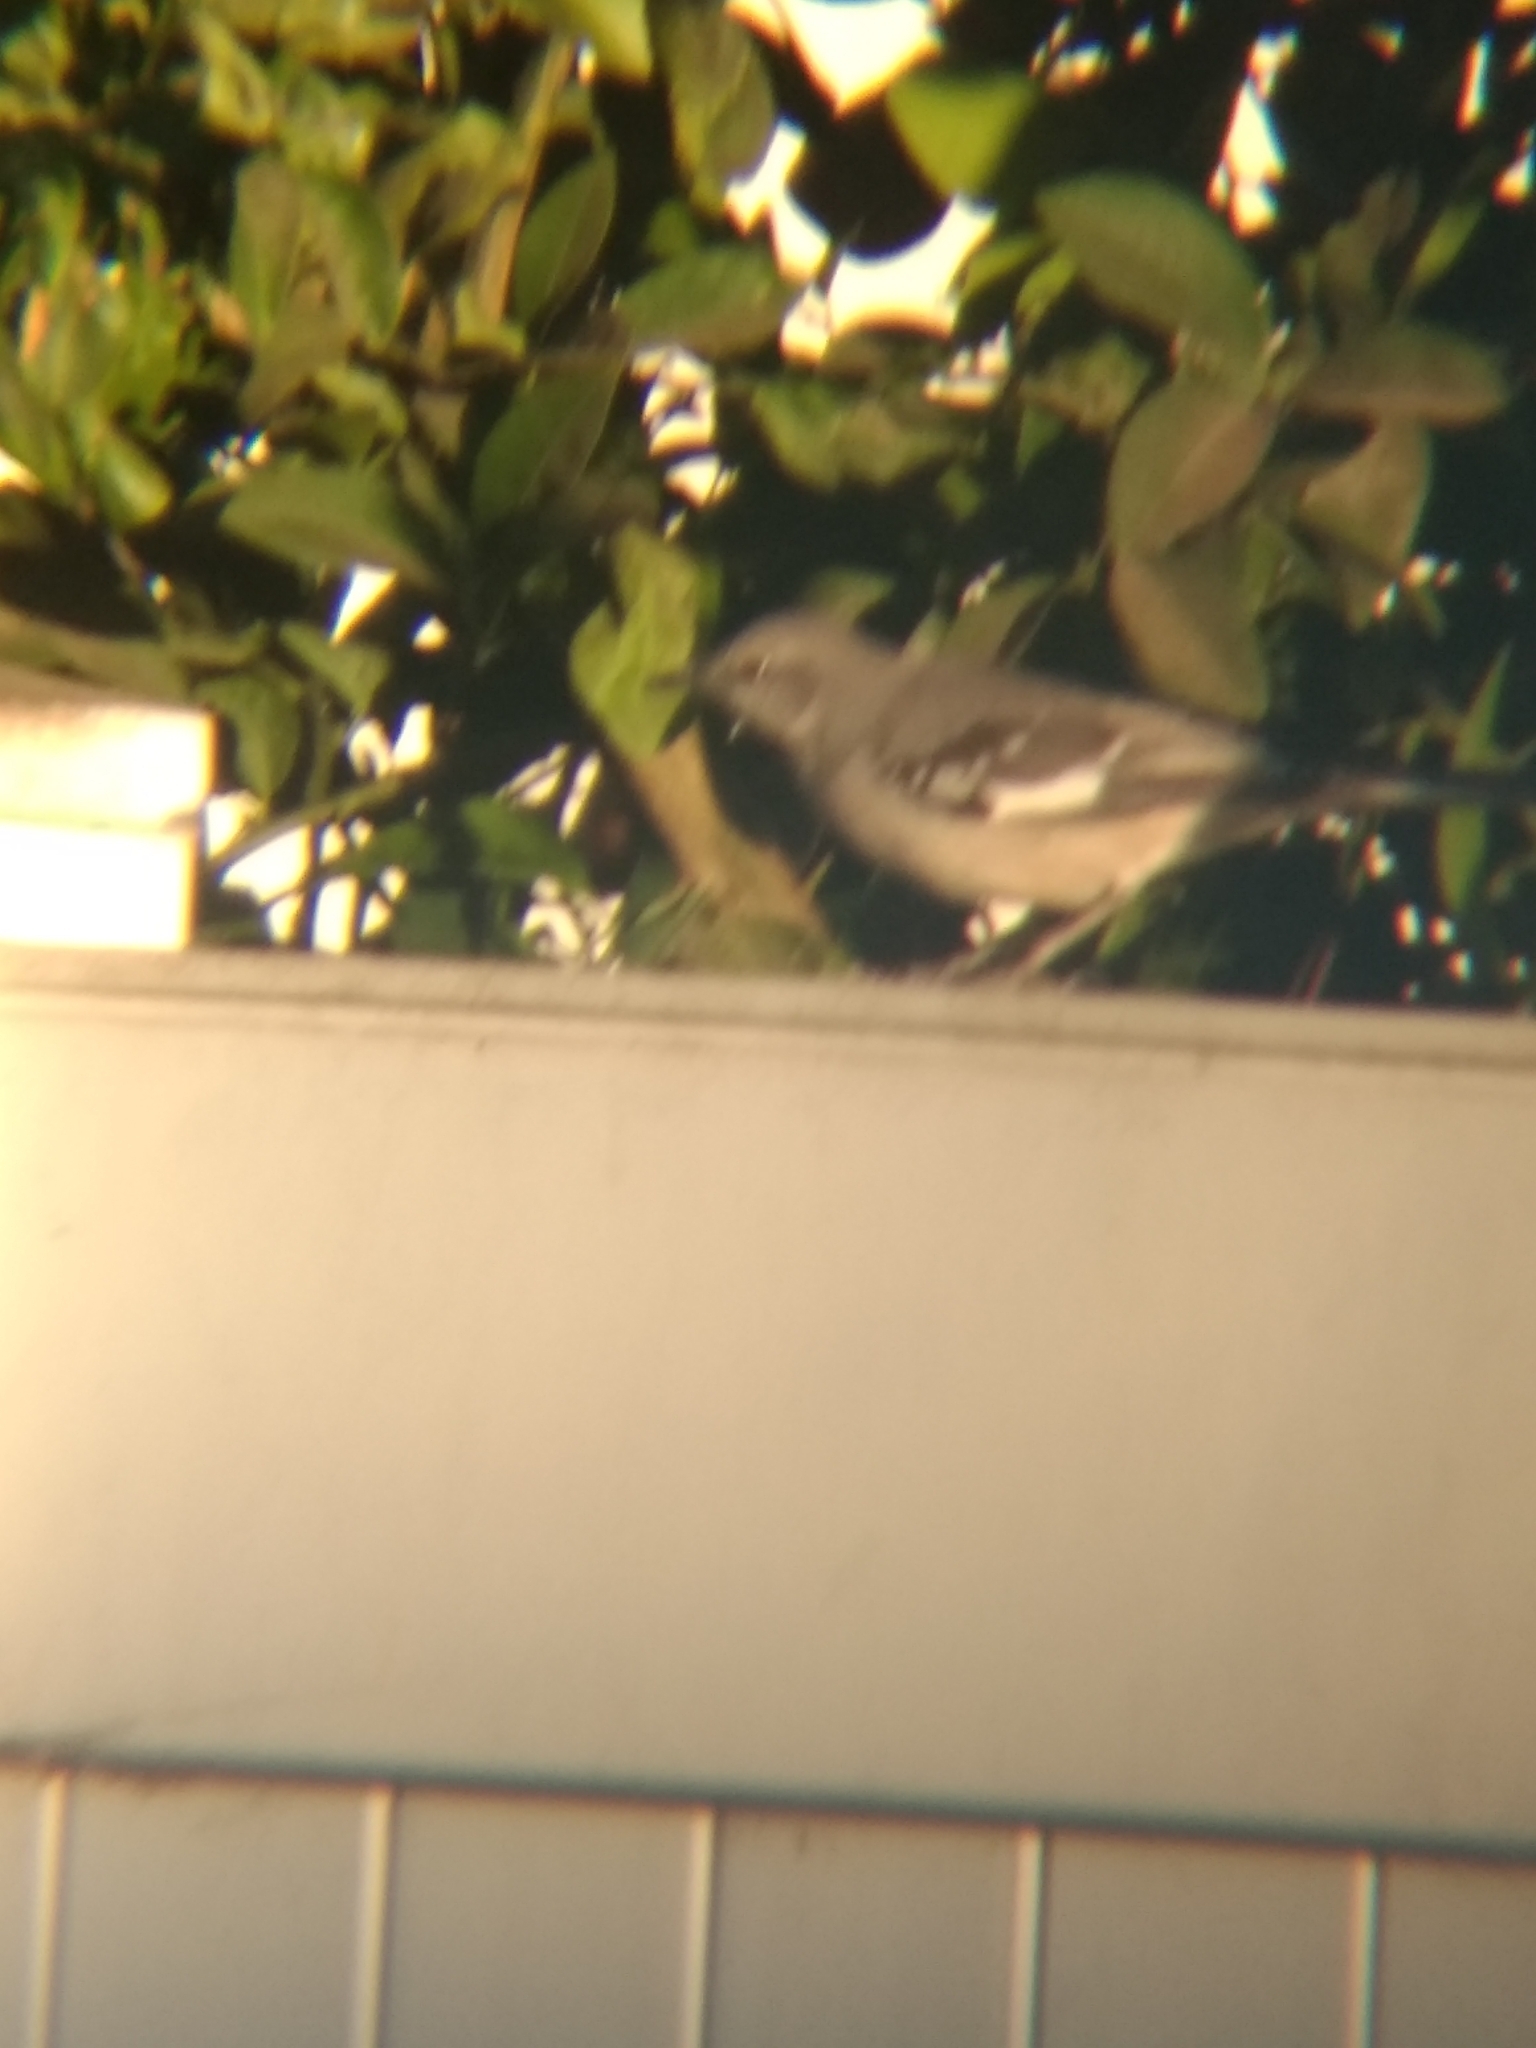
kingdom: Animalia
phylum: Chordata
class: Aves
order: Passeriformes
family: Mimidae
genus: Mimus
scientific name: Mimus polyglottos
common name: Northern mockingbird
